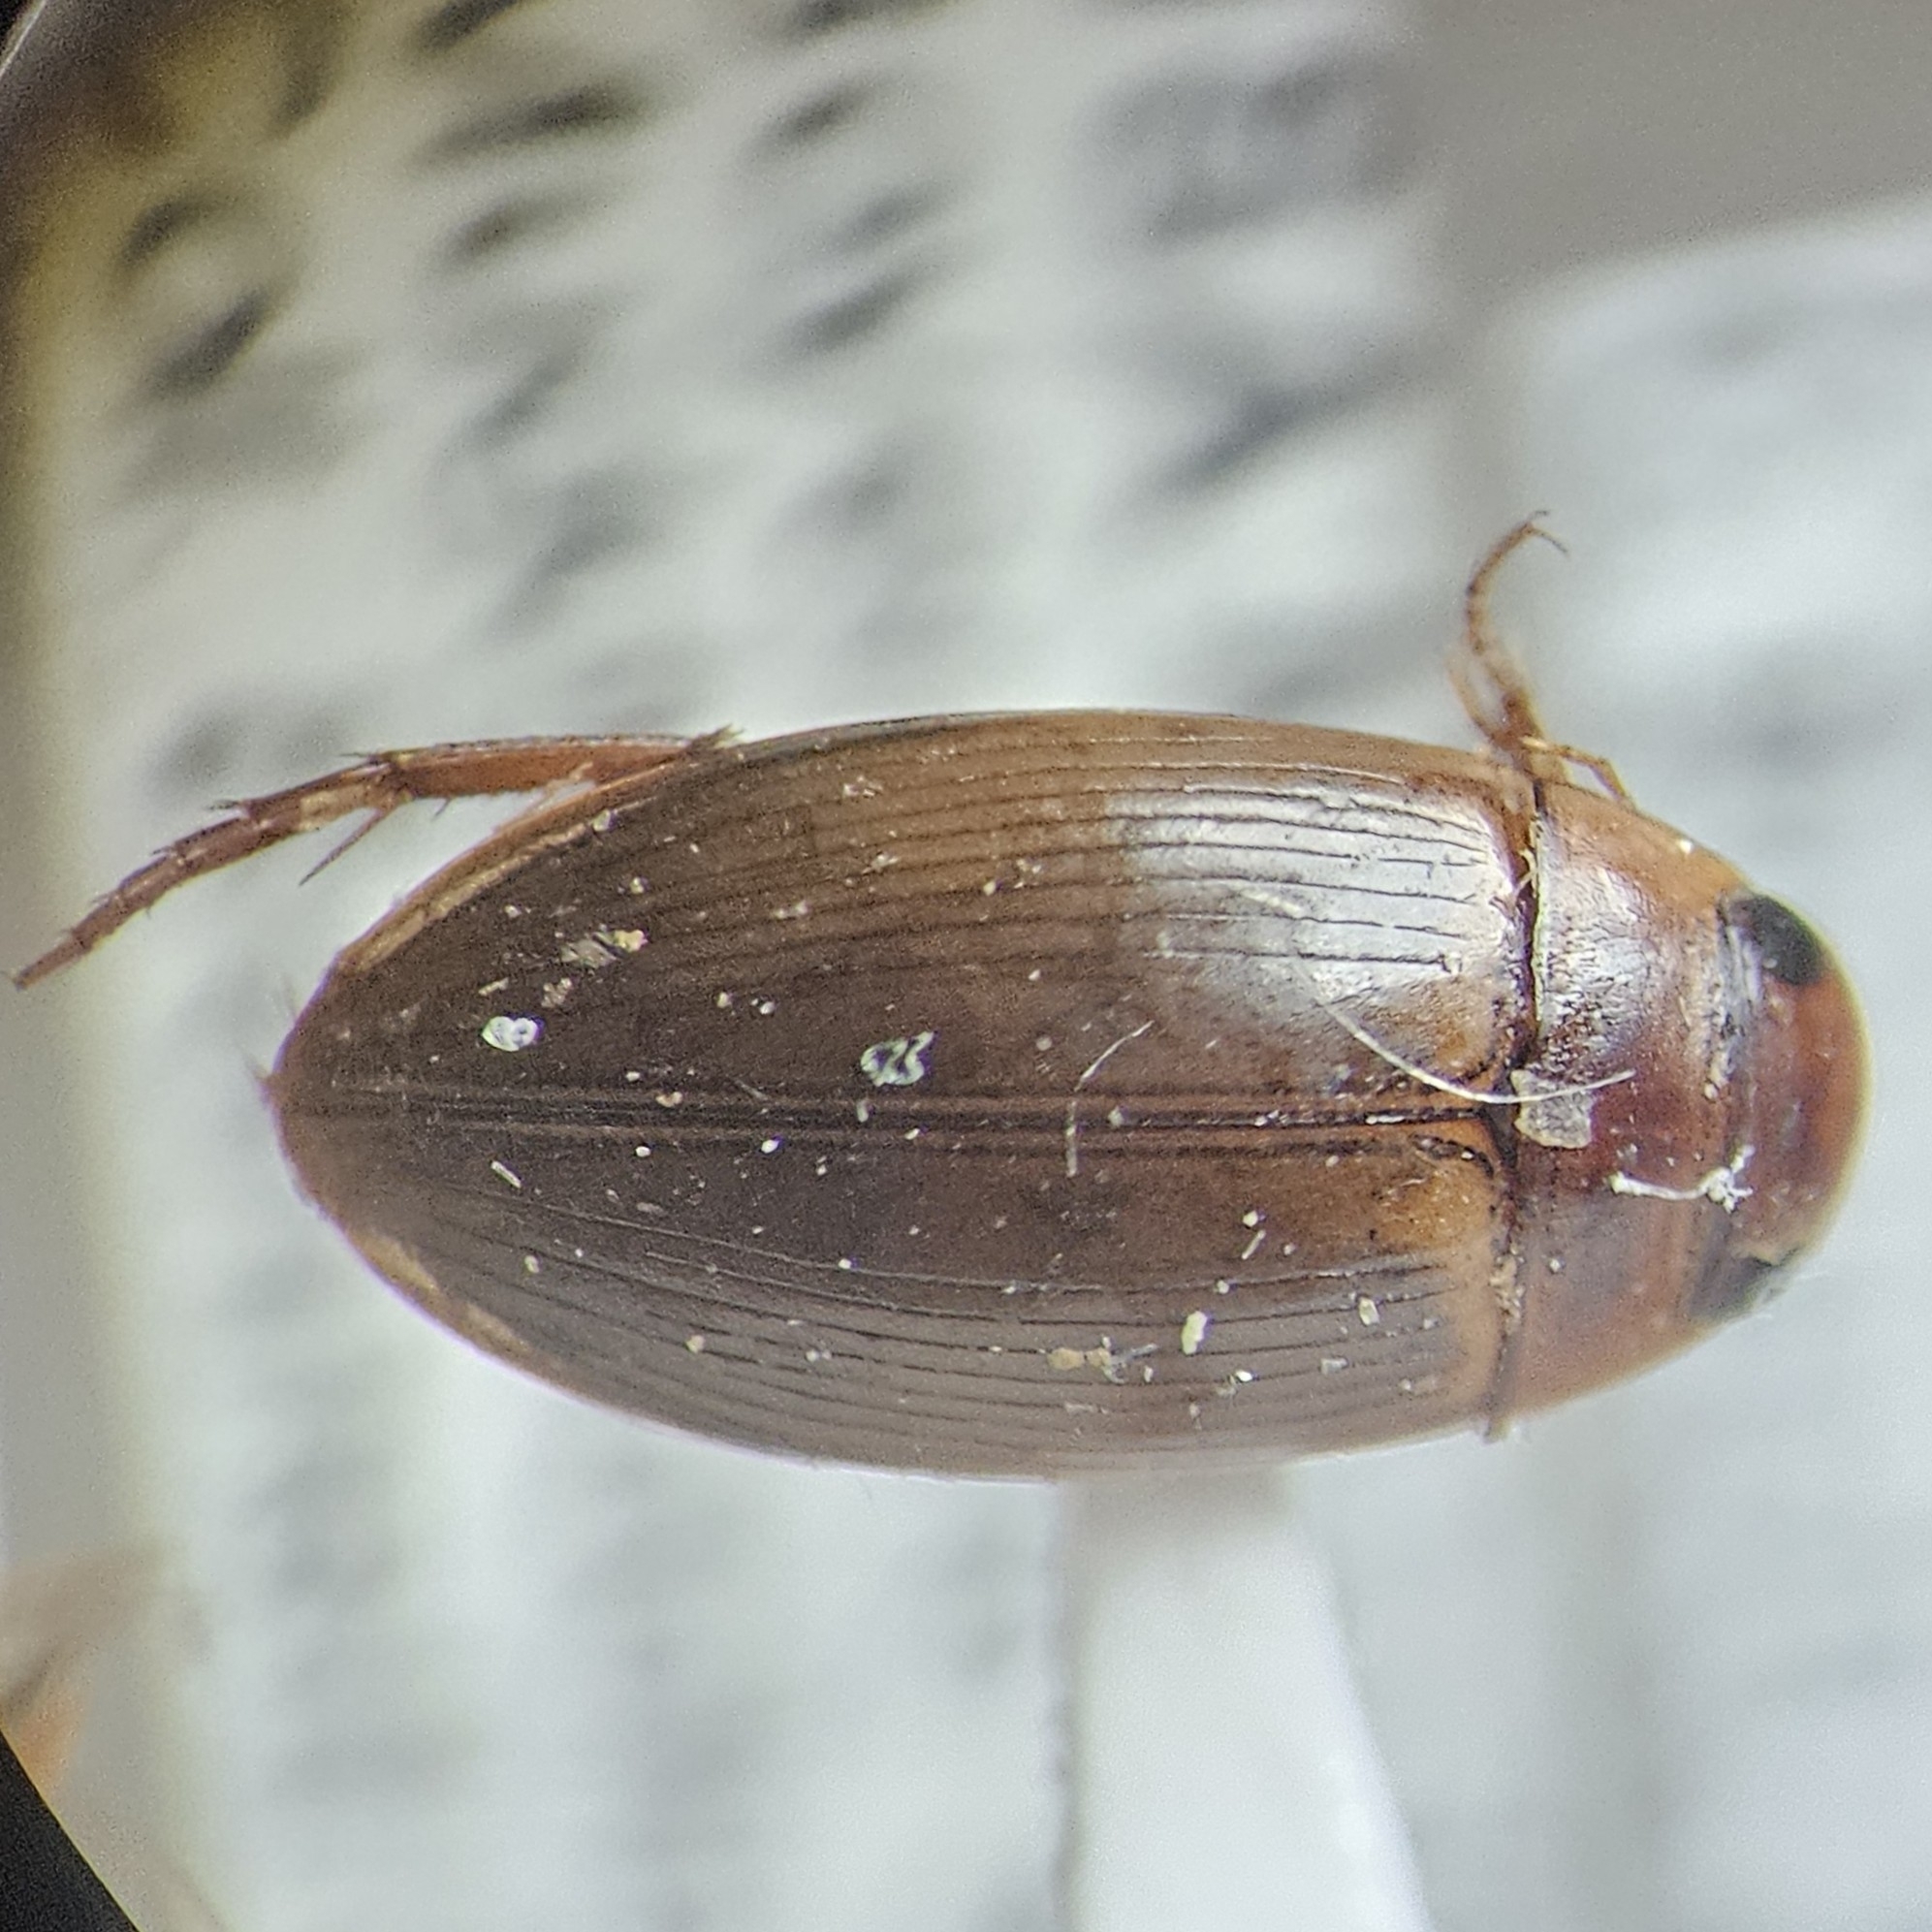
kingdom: Animalia
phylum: Arthropoda
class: Insecta
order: Coleoptera
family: Dytiscidae
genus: Copelatus
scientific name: Copelatus chevrolati
